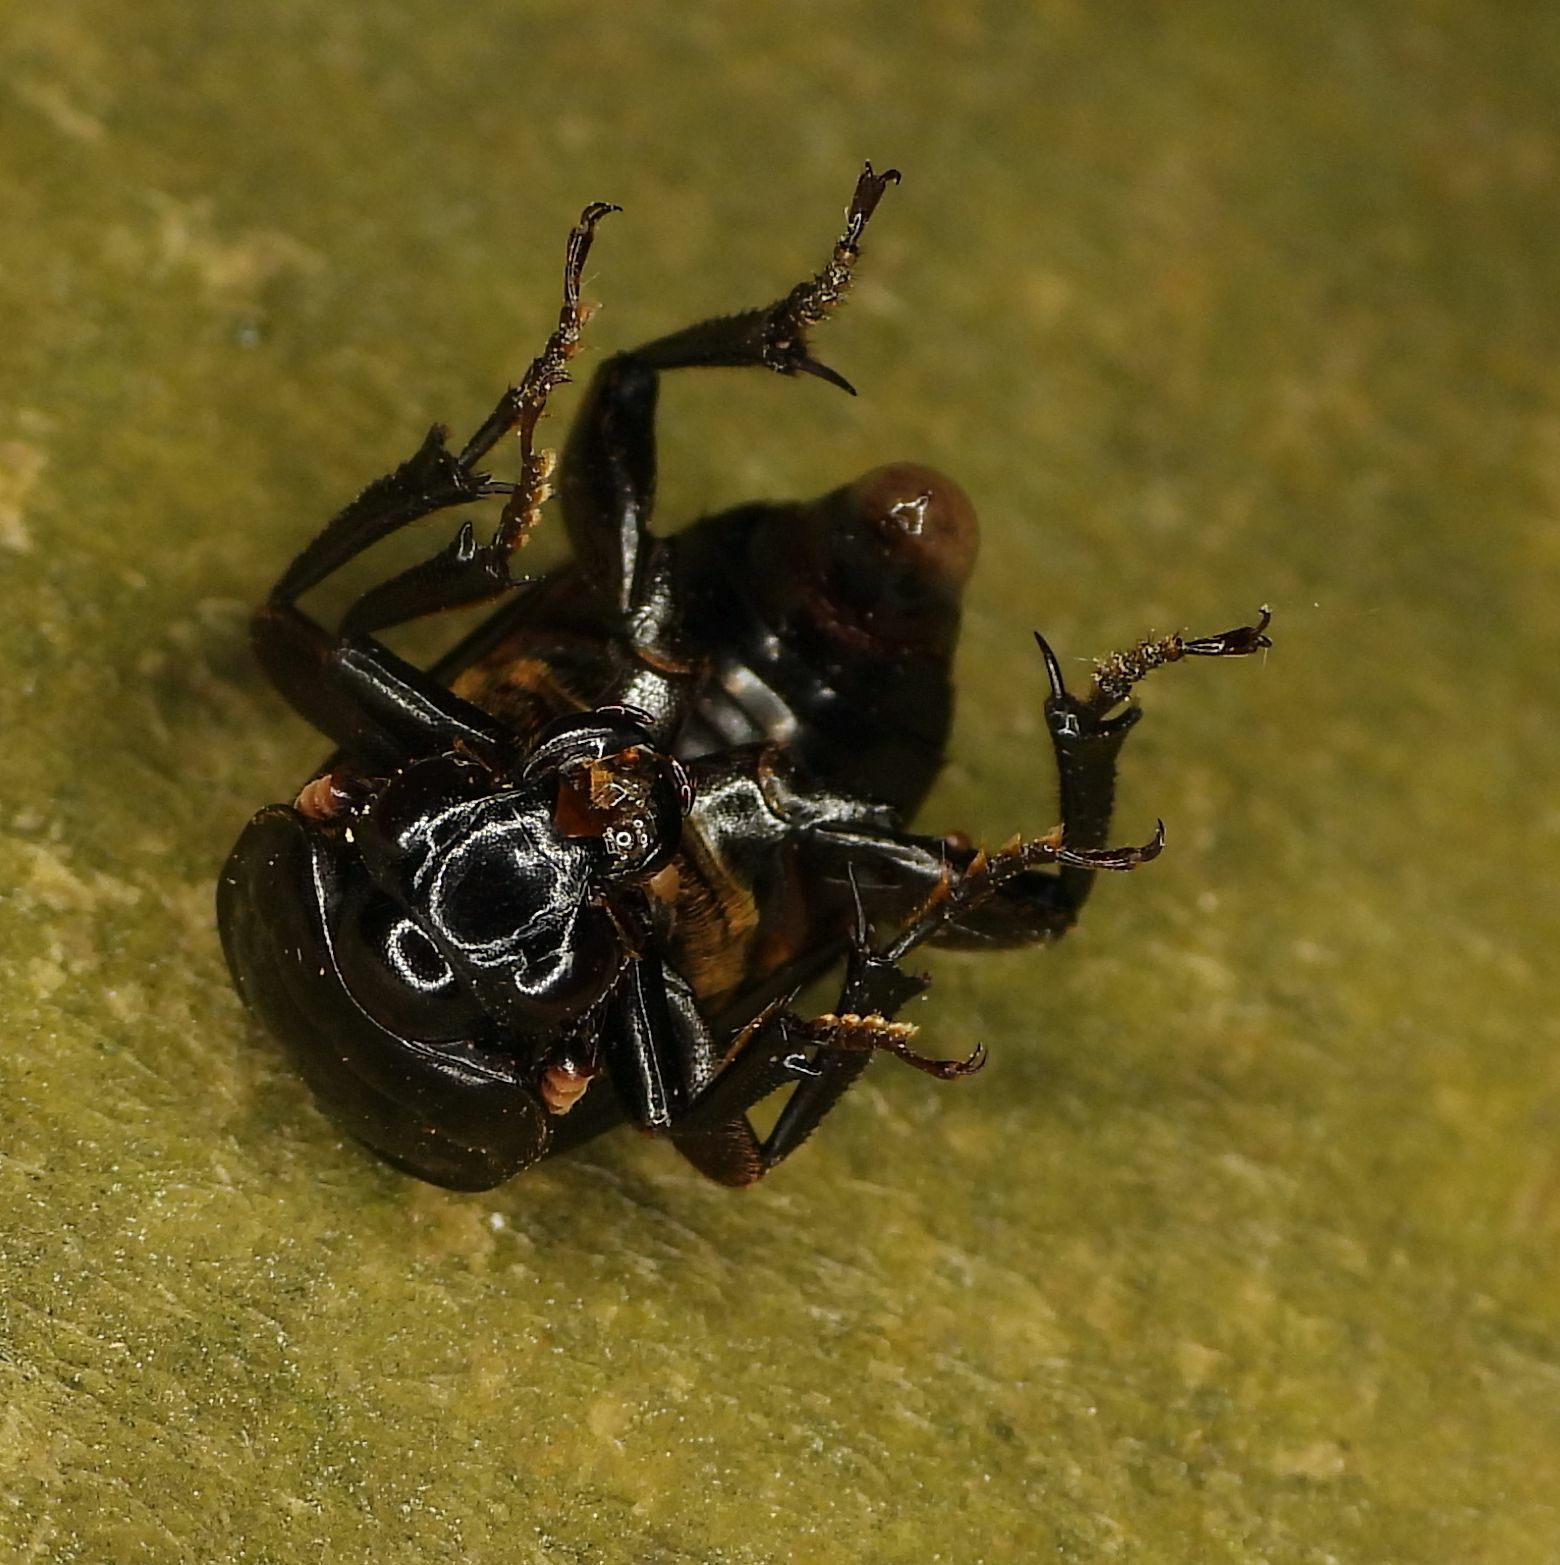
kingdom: Animalia
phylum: Arthropoda
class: Insecta
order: Coleoptera
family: Staphylinidae
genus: Nicrophorus
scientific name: Nicrophorus pustulatus
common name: Pustulated carrion beetle
